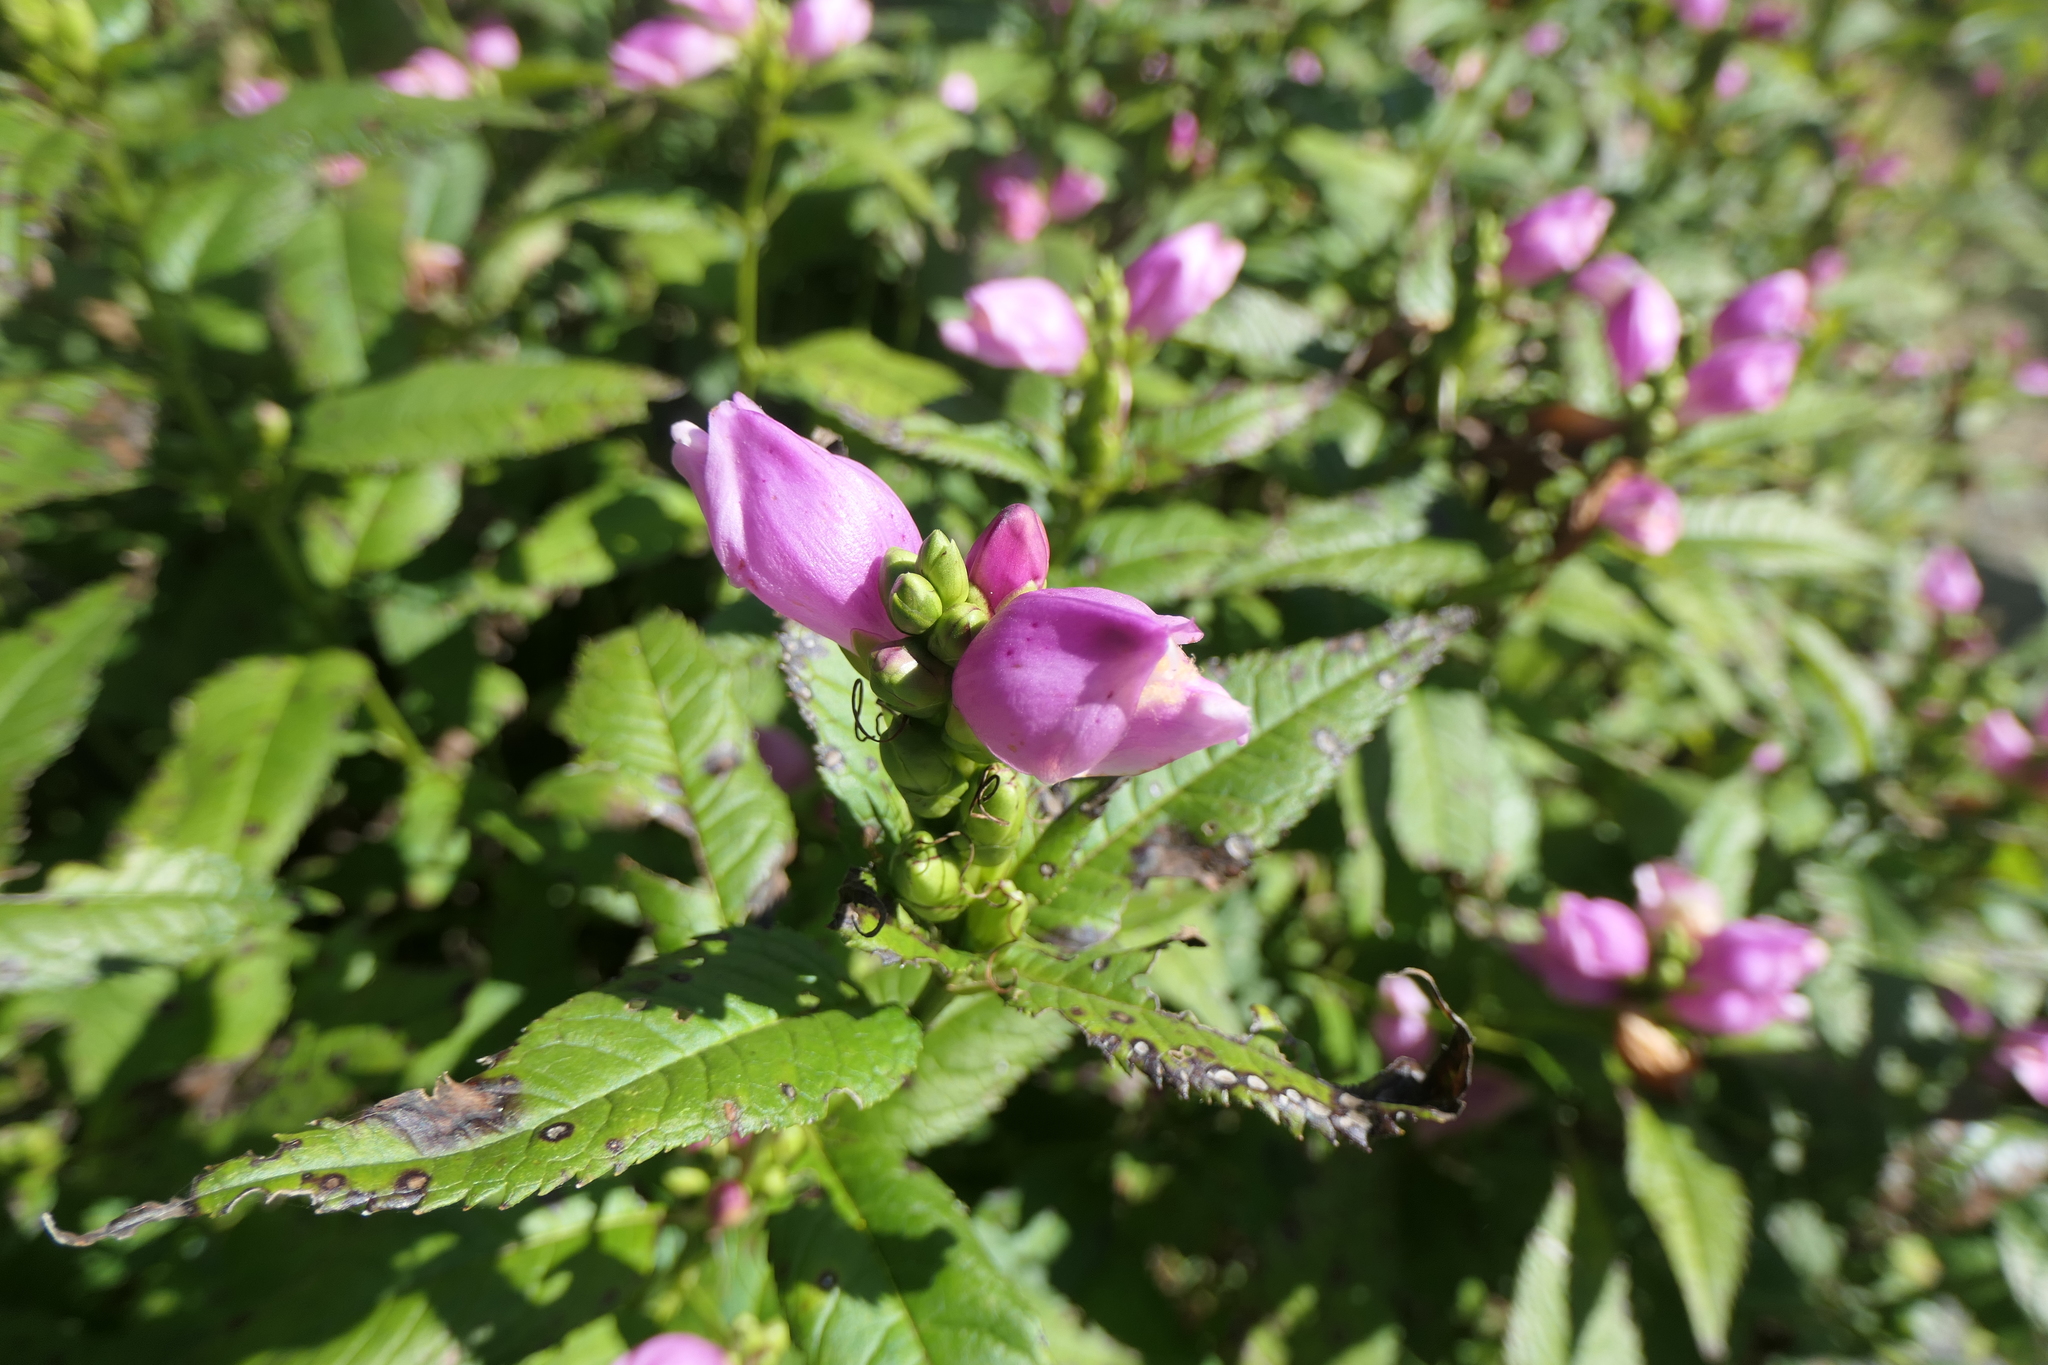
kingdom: Plantae
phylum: Tracheophyta
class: Magnoliopsida
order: Lamiales
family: Plantaginaceae
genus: Chelone
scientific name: Chelone lyonii
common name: Pink turtlehead
